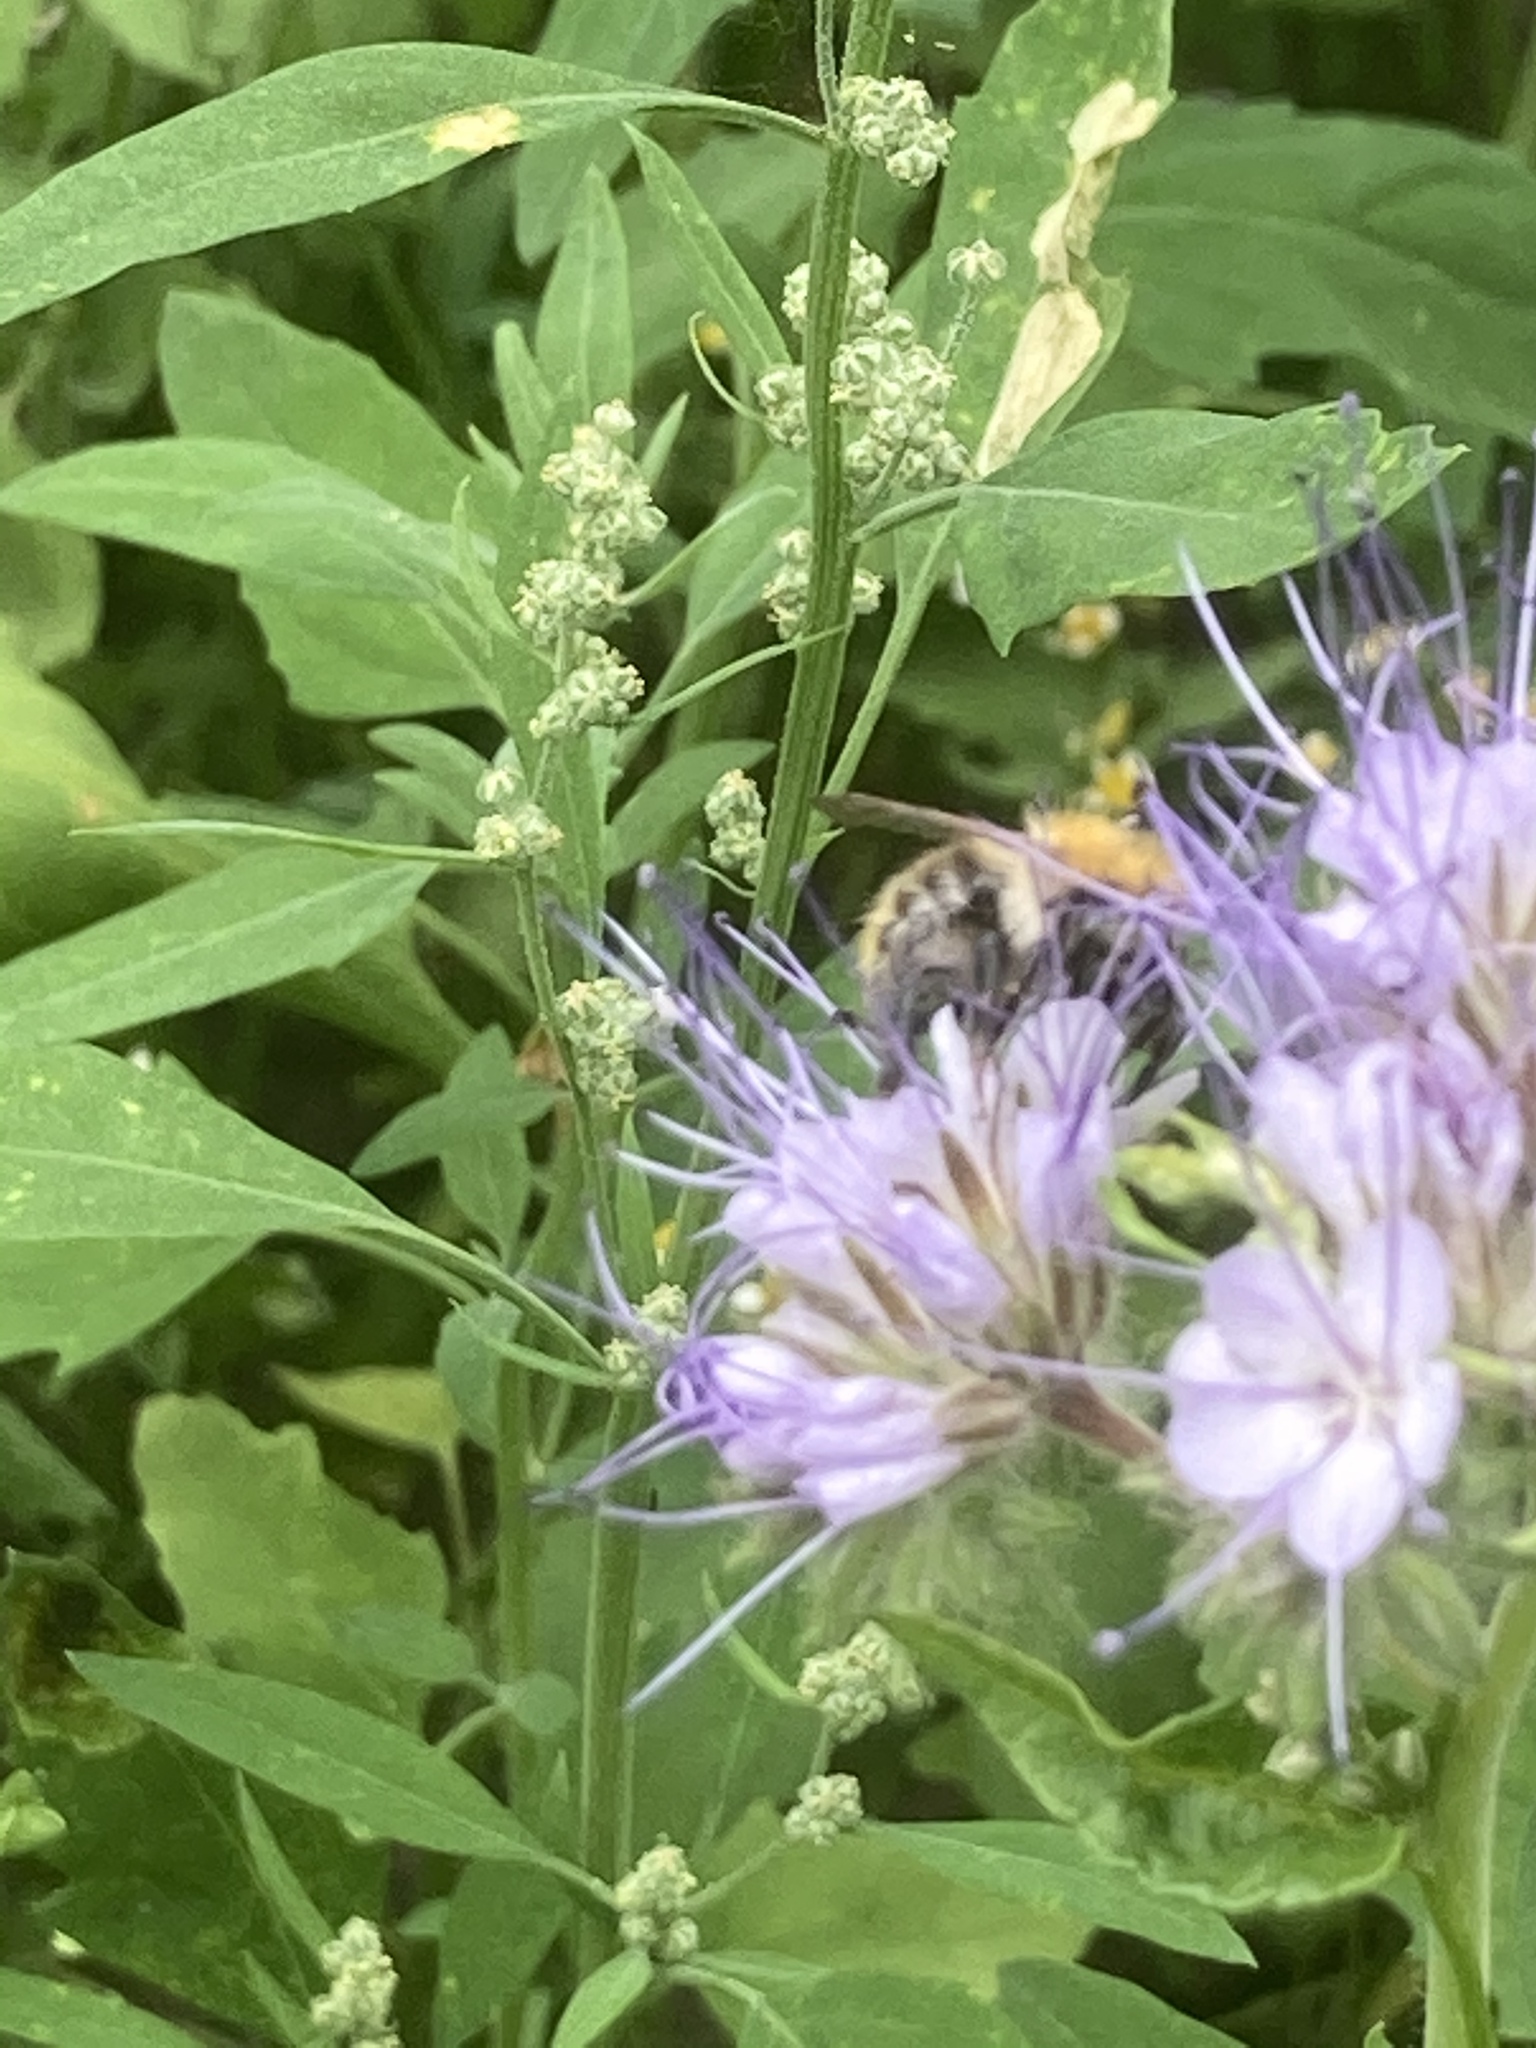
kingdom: Plantae
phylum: Tracheophyta
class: Magnoliopsida
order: Boraginales
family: Hydrophyllaceae
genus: Phacelia
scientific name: Phacelia tanacetifolia
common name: Phacelia
